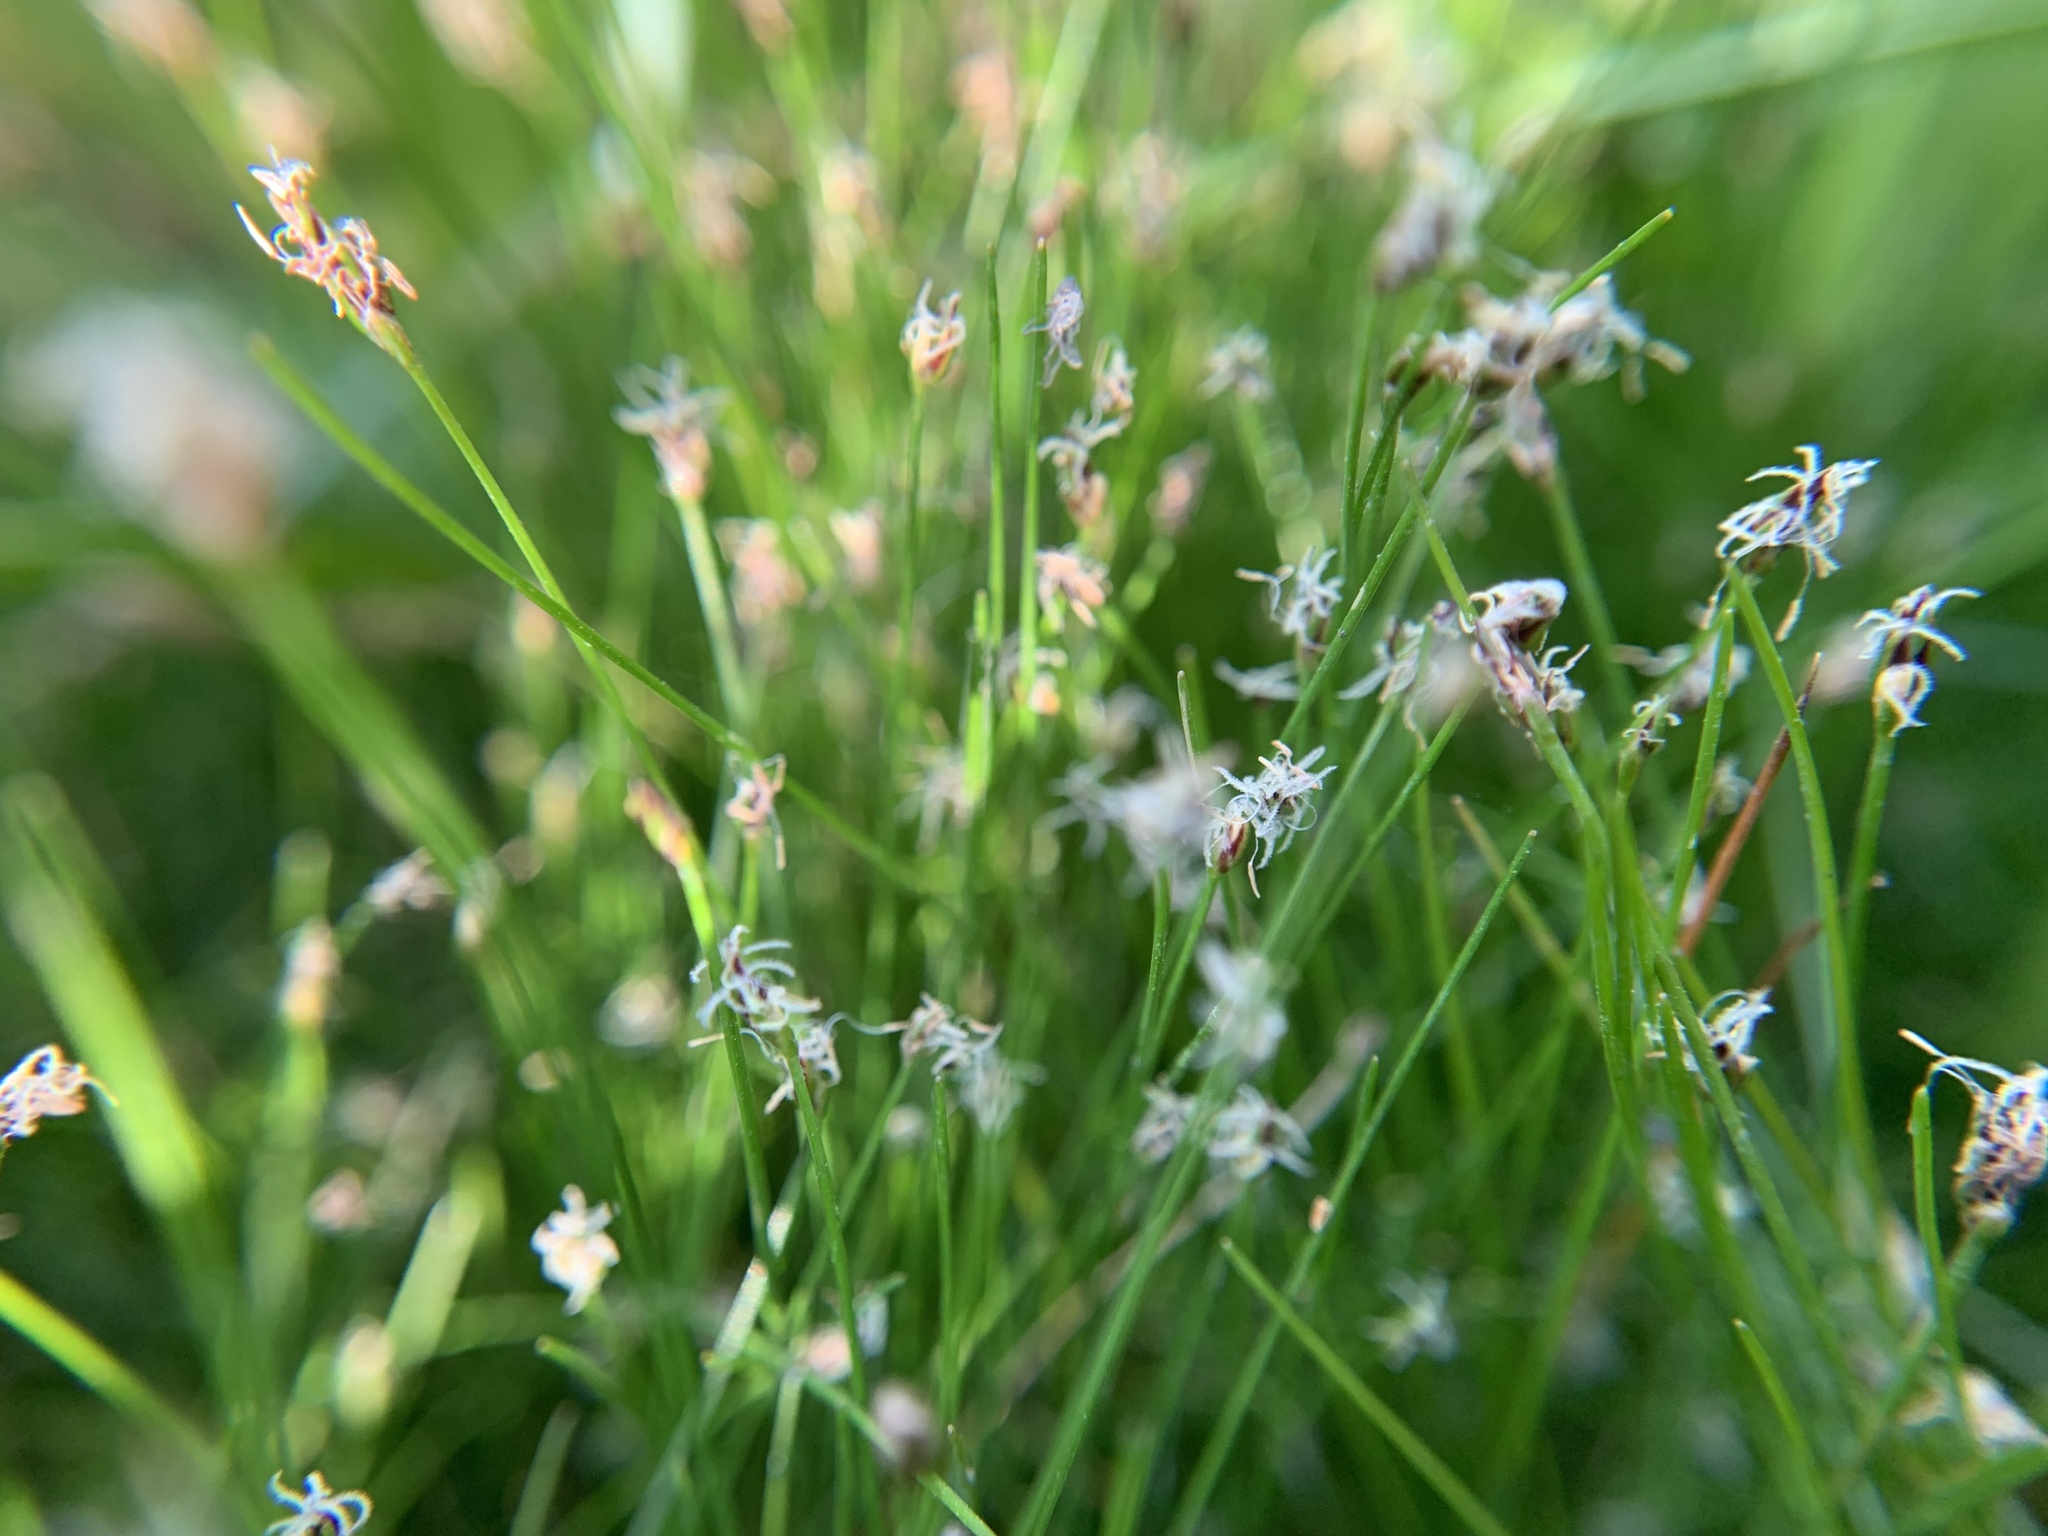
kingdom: Plantae
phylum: Tracheophyta
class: Liliopsida
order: Poales
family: Cyperaceae
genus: Eleocharis
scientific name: Eleocharis acicularis
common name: Needle spike-rush
